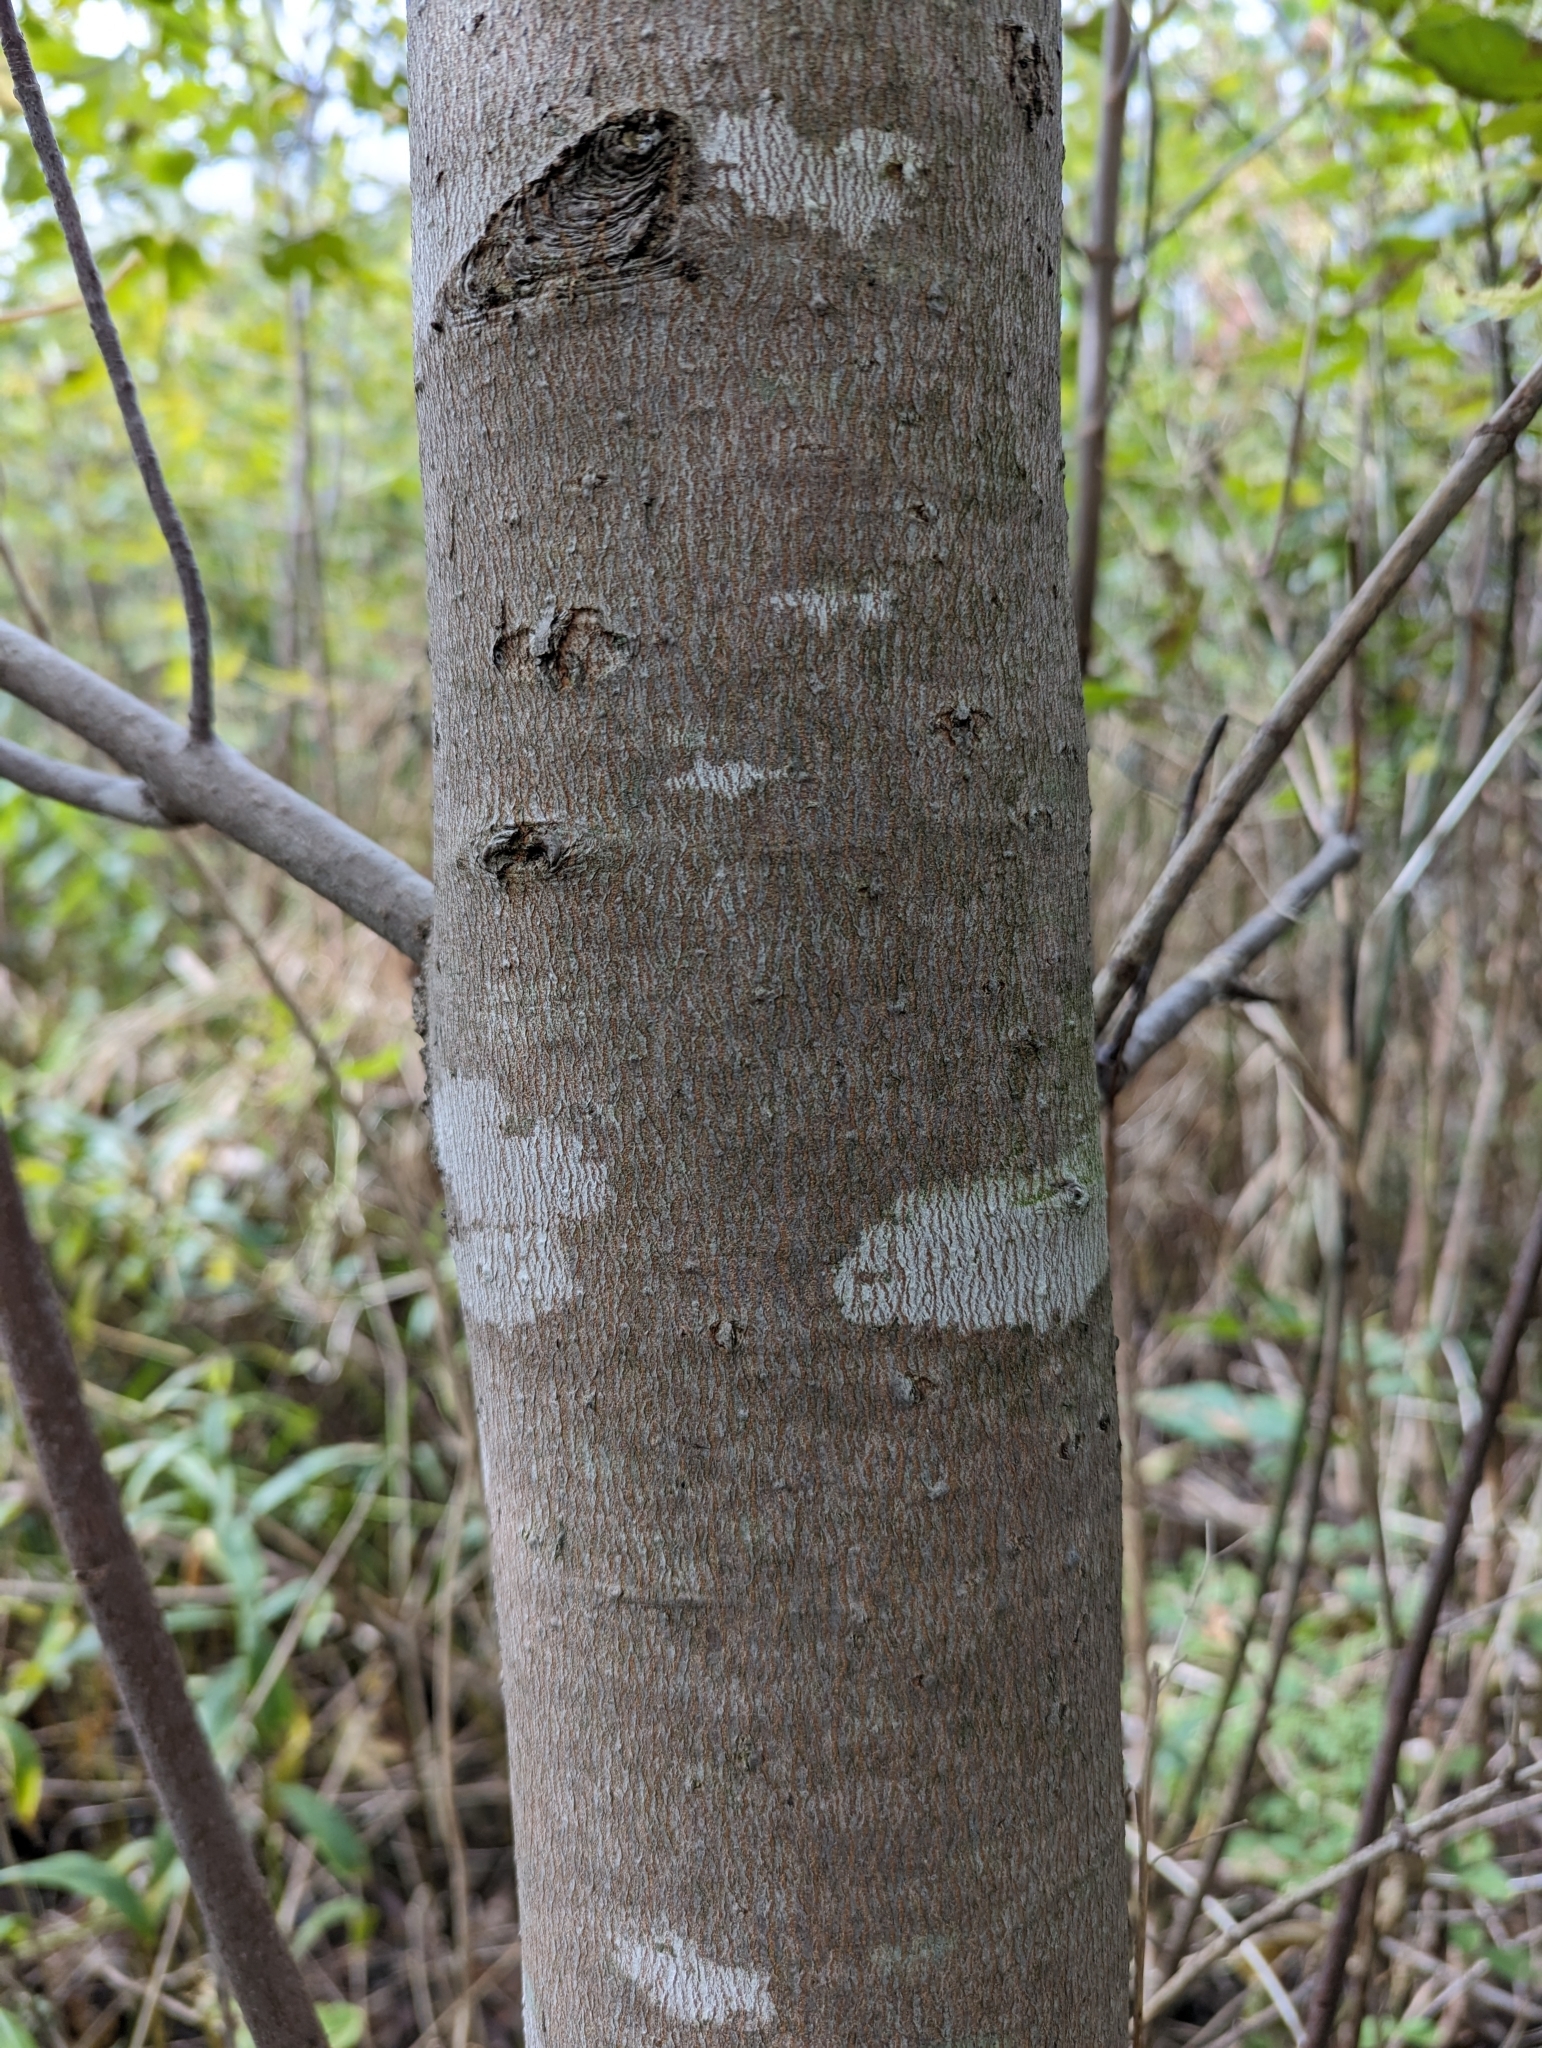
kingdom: Plantae
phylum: Tracheophyta
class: Magnoliopsida
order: Sapindales
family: Sapindaceae
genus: Acer
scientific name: Acer saccharinum
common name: Silver maple
